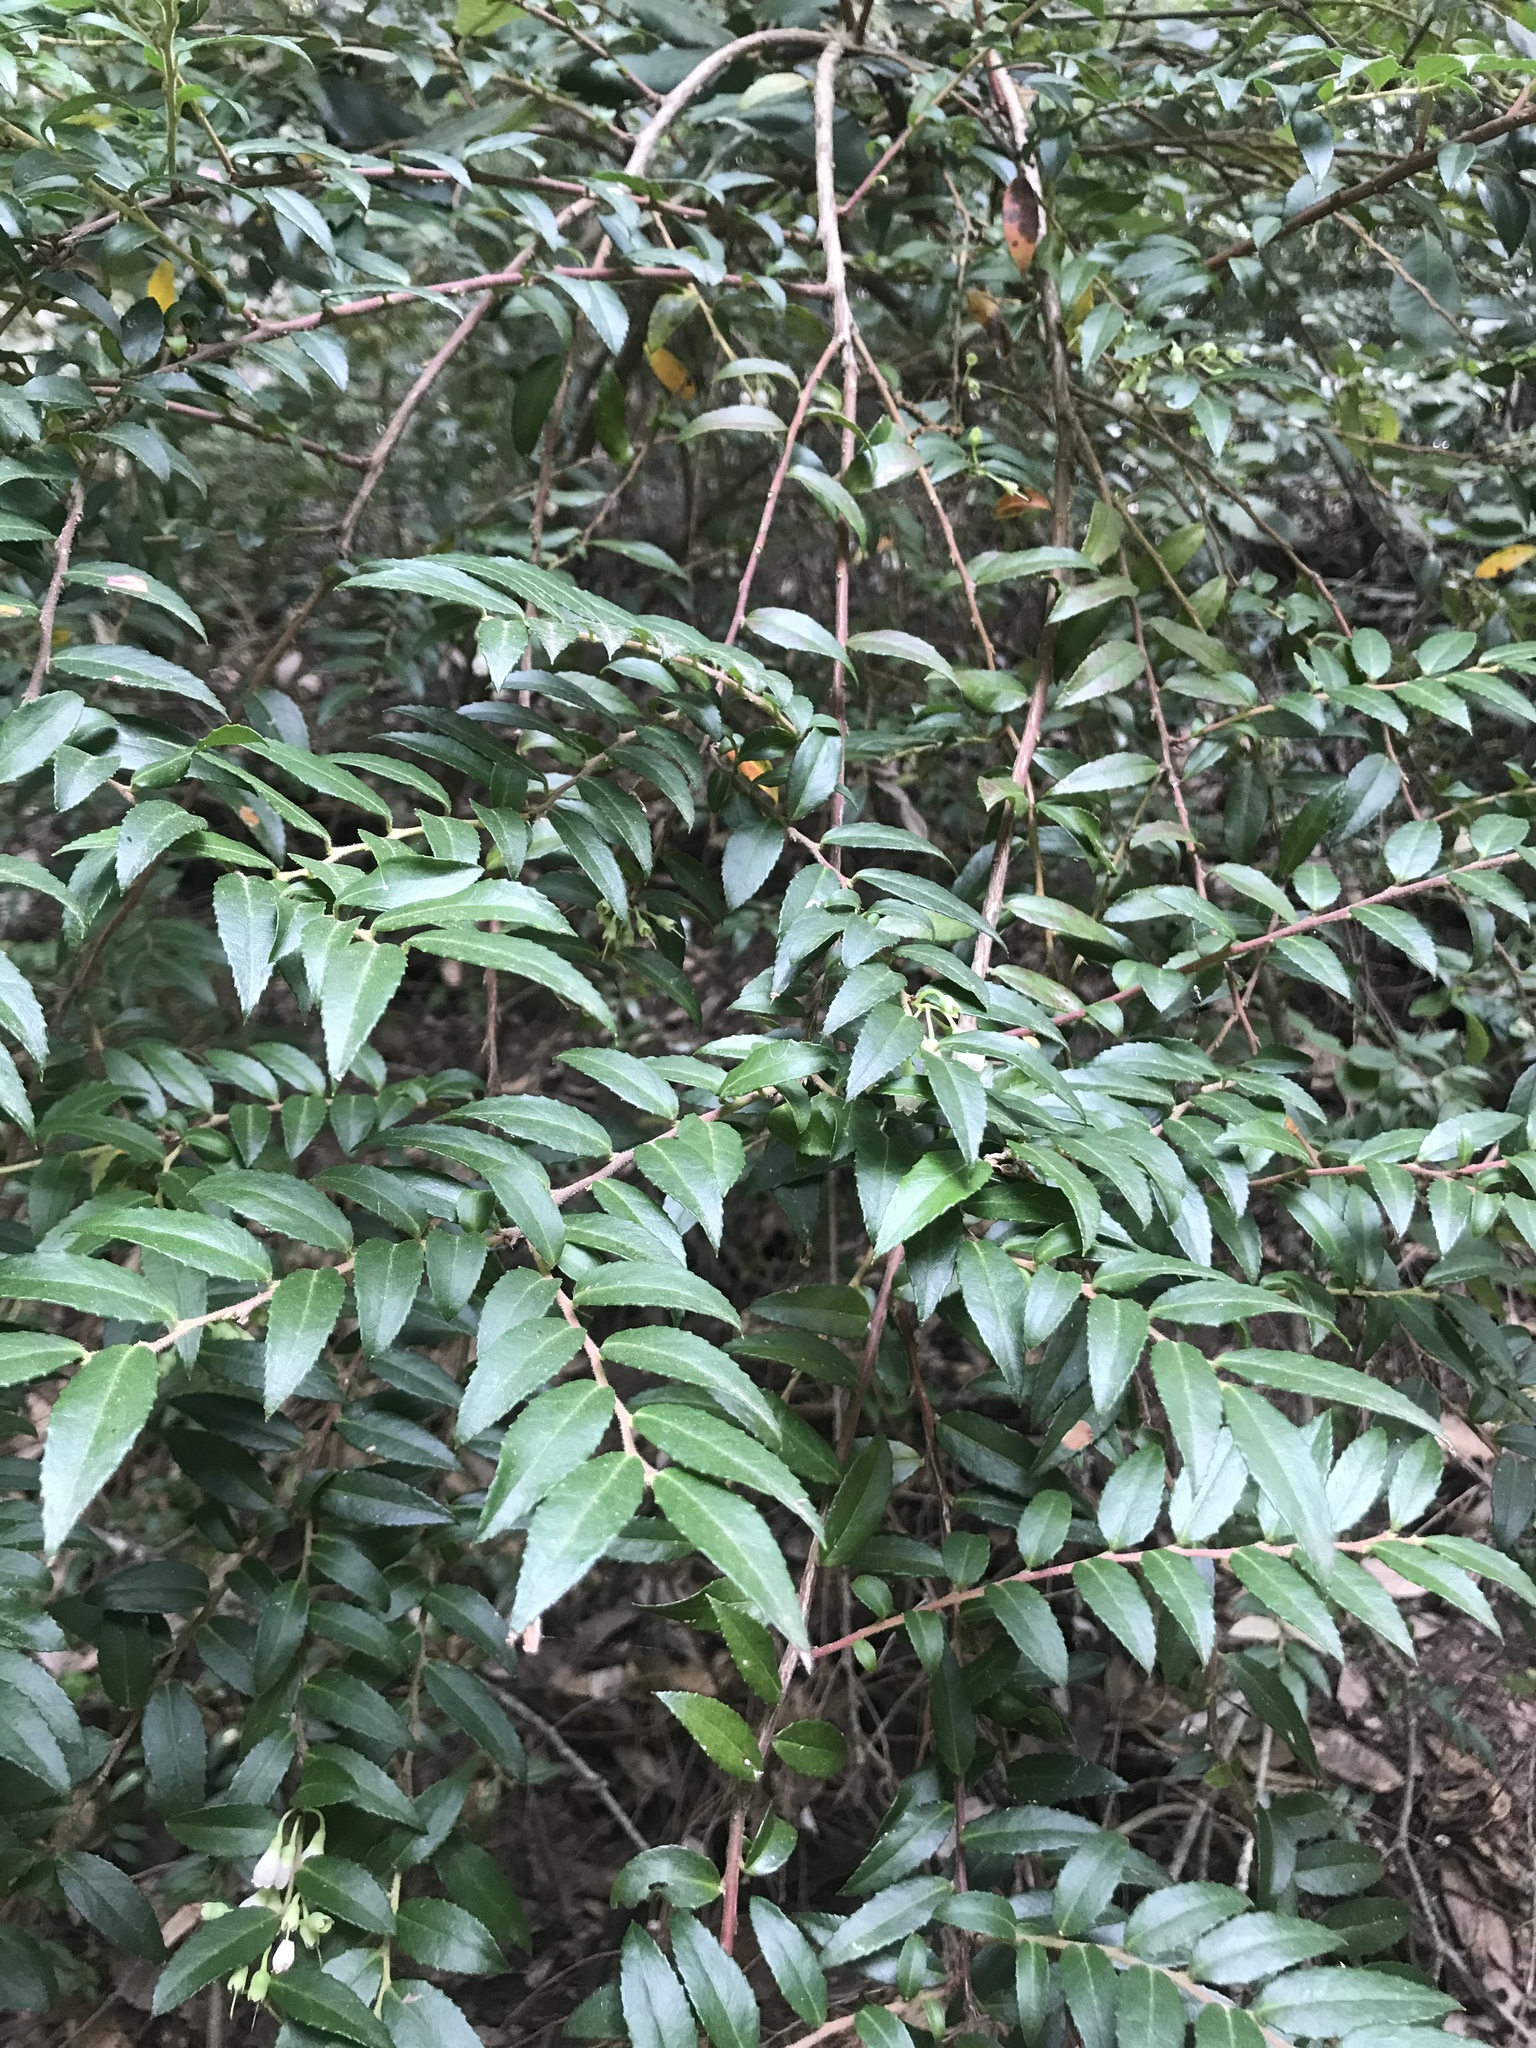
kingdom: Plantae
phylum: Tracheophyta
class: Magnoliopsida
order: Ericales
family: Ericaceae
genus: Vaccinium
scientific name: Vaccinium ovatum
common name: California-huckleberry
